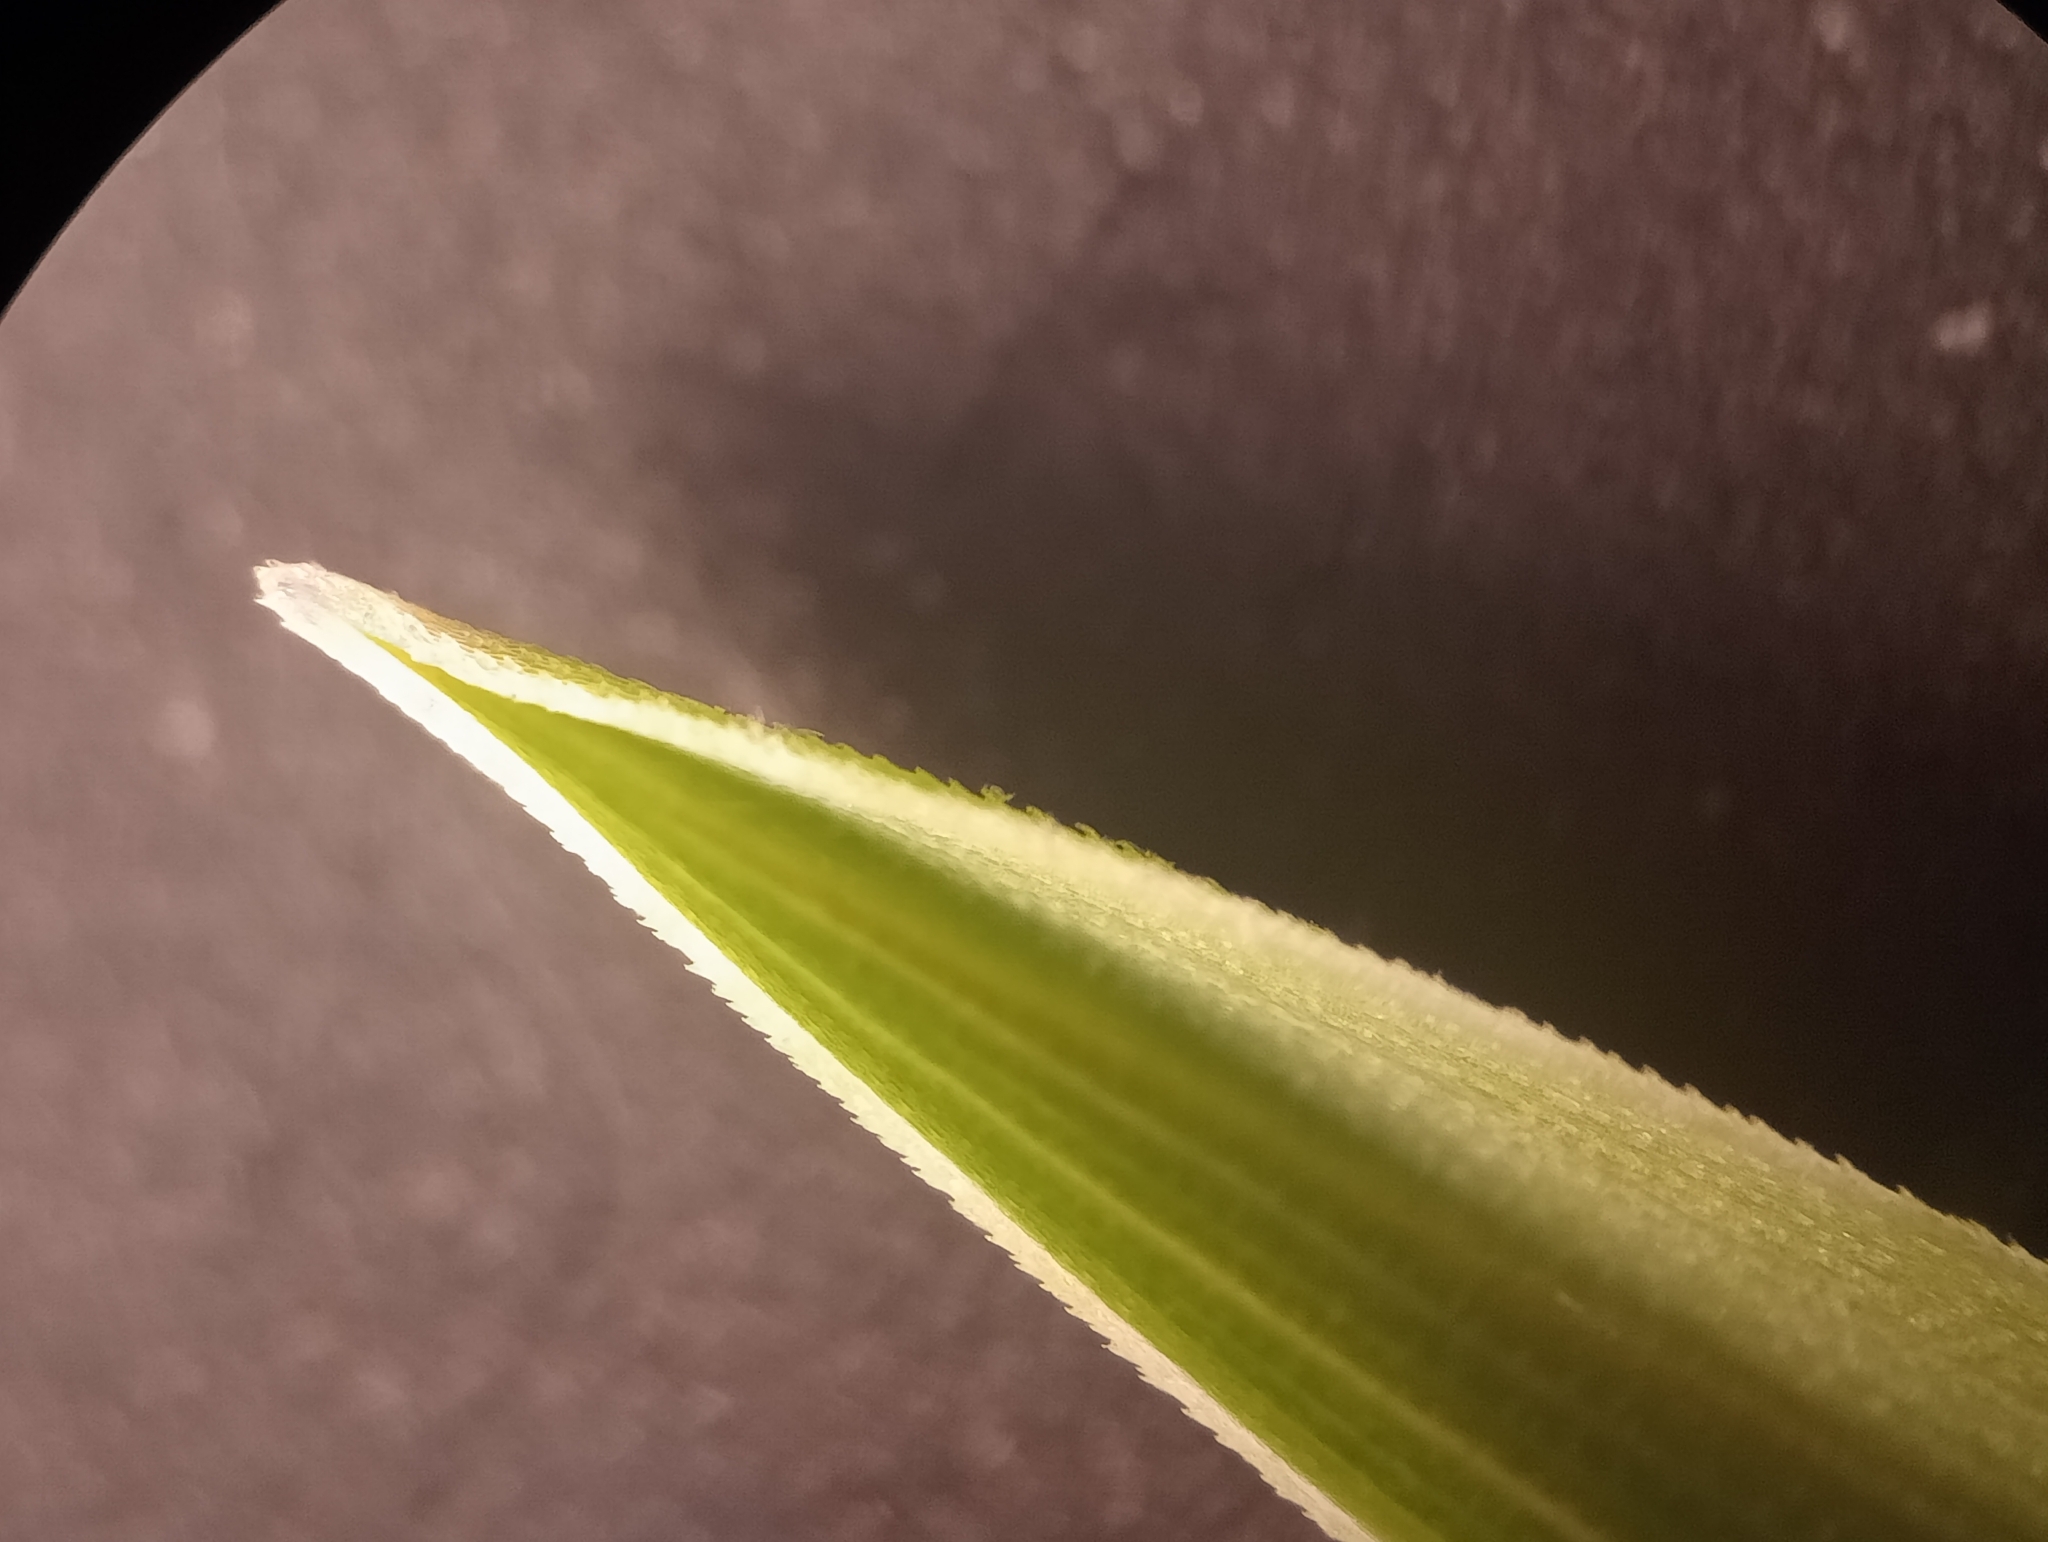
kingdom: Plantae
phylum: Tracheophyta
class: Liliopsida
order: Poales
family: Poaceae
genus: Poa
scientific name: Poa pratensis
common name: Kentucky bluegrass
